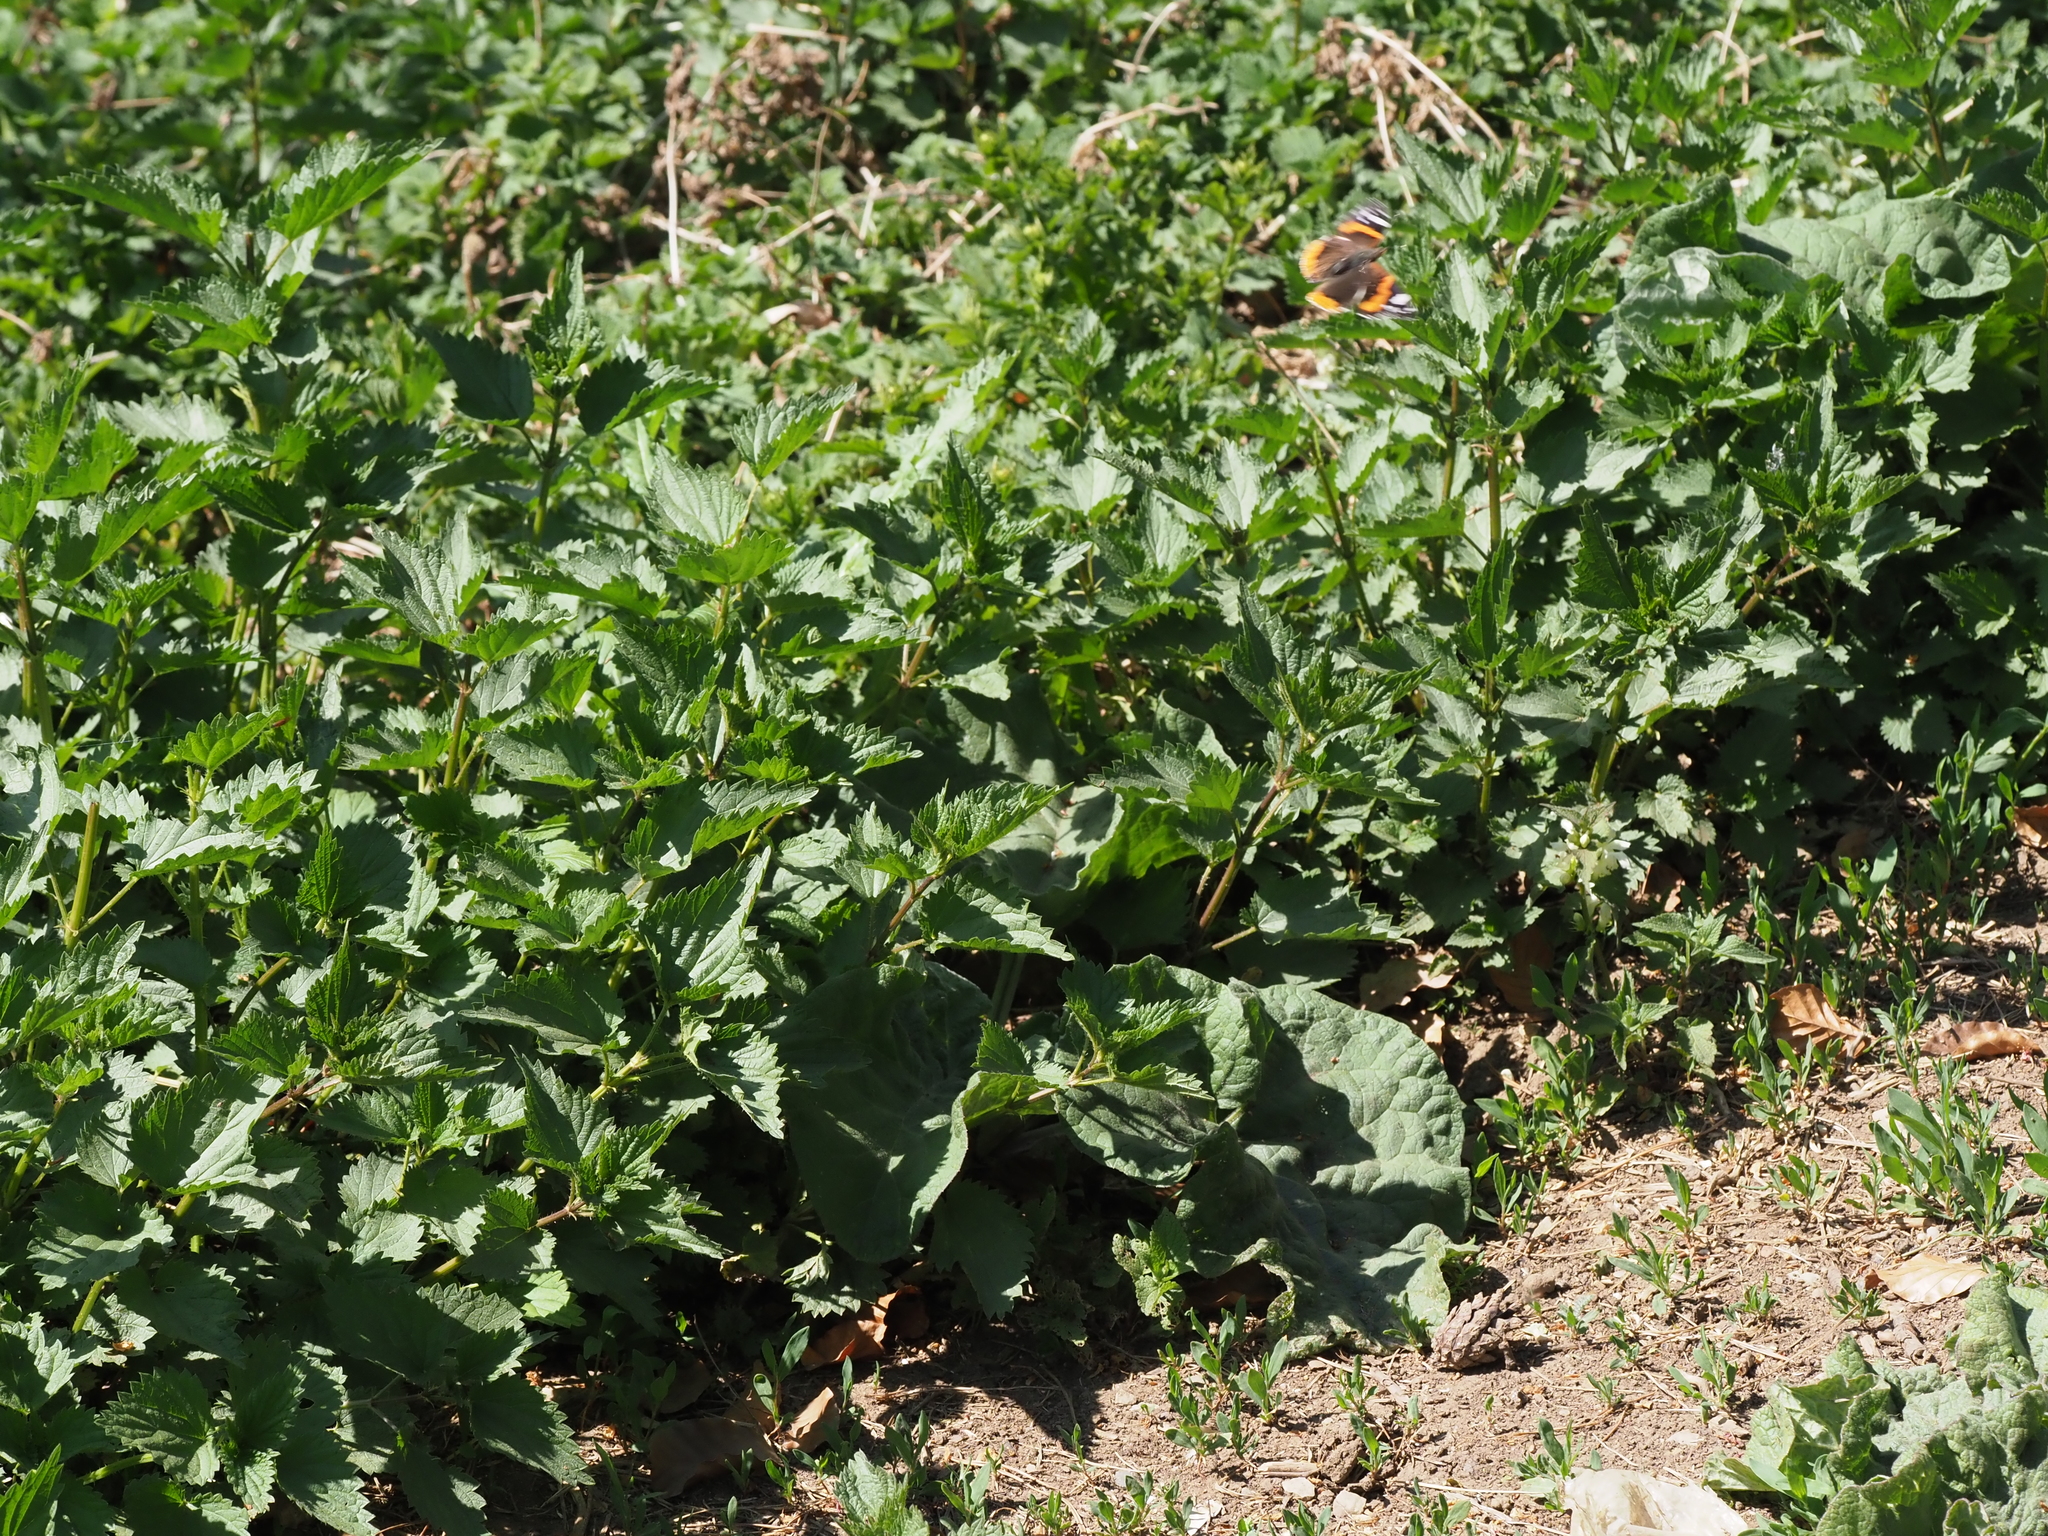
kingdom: Animalia
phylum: Arthropoda
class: Insecta
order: Lepidoptera
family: Nymphalidae
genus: Vanessa
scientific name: Vanessa atalanta
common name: Red admiral
